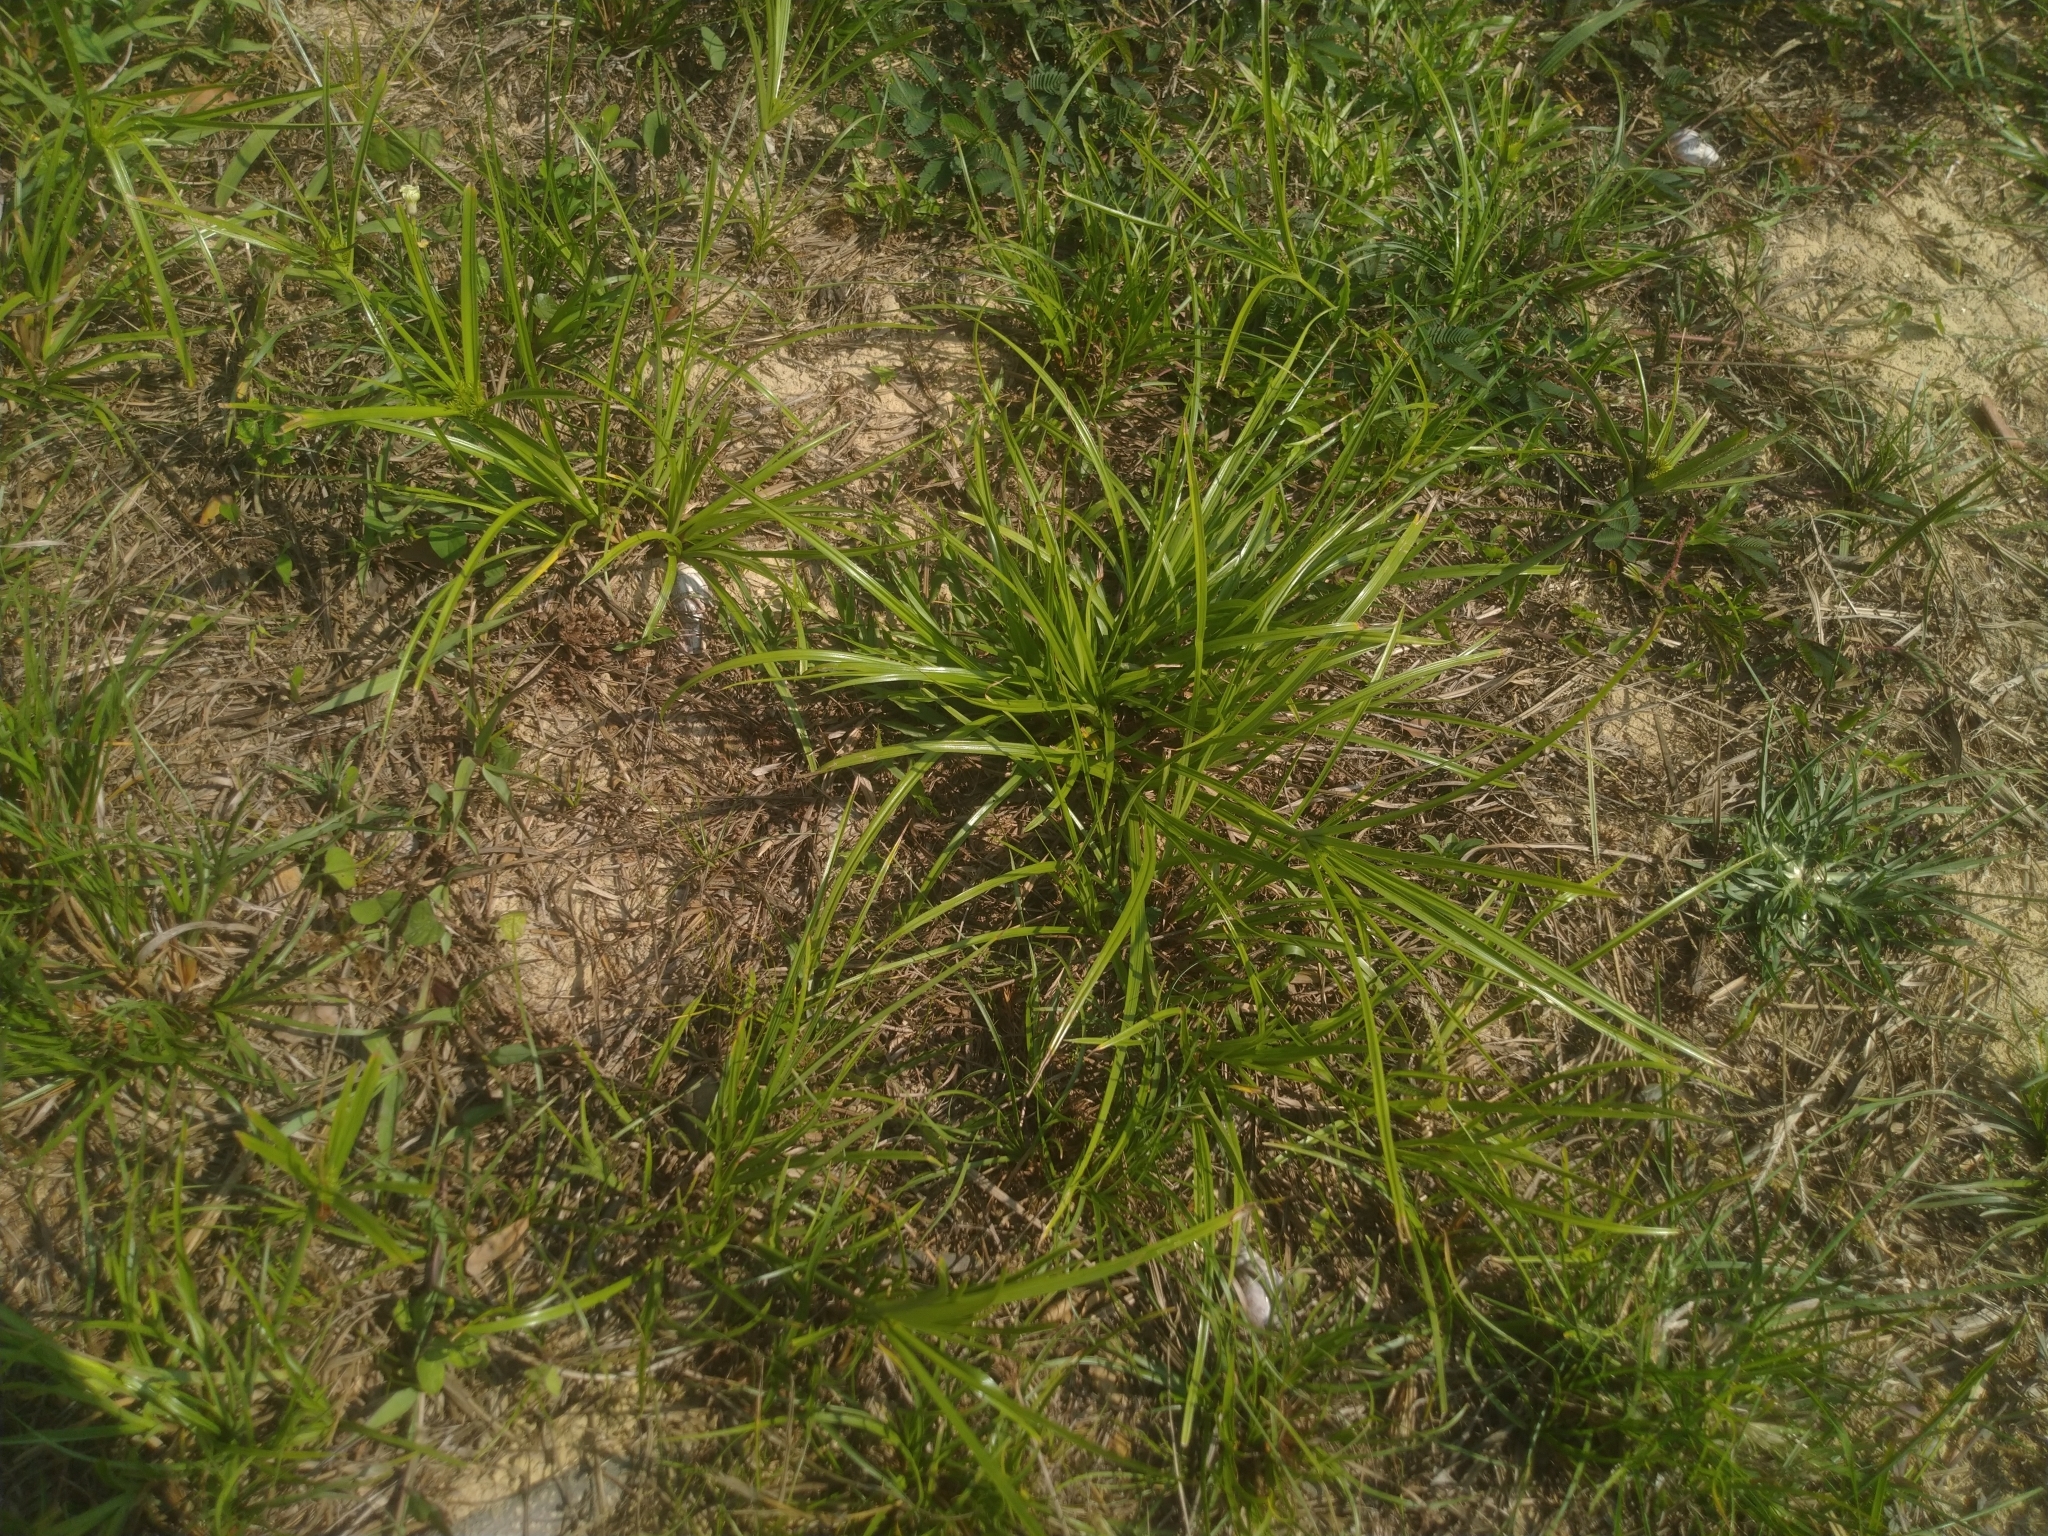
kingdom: Plantae
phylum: Tracheophyta
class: Liliopsida
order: Poales
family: Cyperaceae
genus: Cyperus
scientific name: Cyperus cyperoides
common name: Pacific island flat sedge
